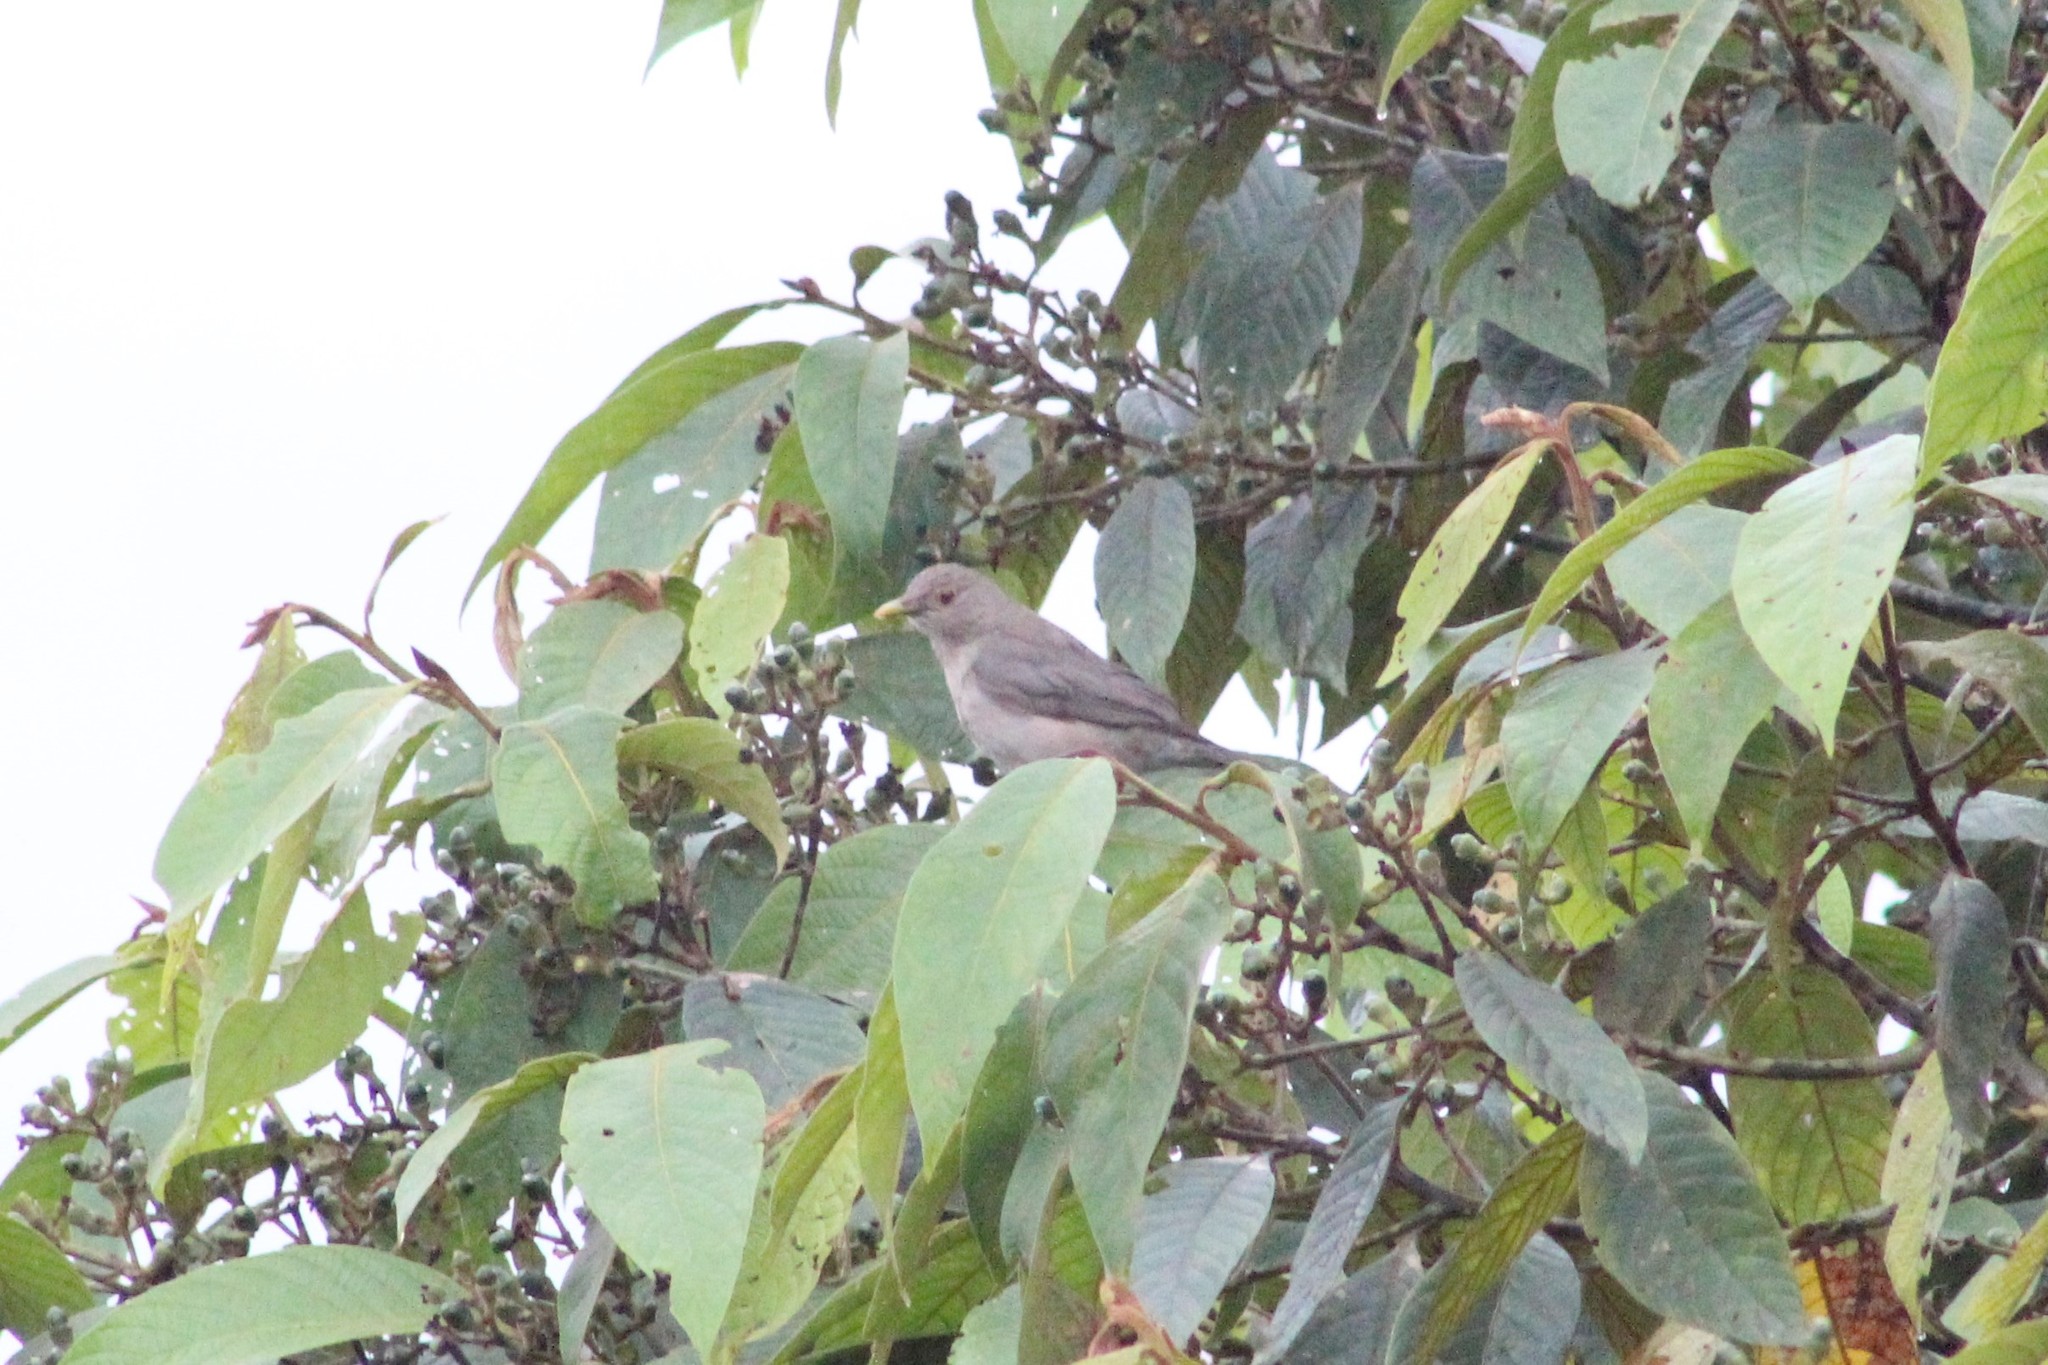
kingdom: Animalia
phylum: Chordata
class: Aves
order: Passeriformes
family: Turdidae
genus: Turdus
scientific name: Turdus maculirostris
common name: Ecuadorian thrush
